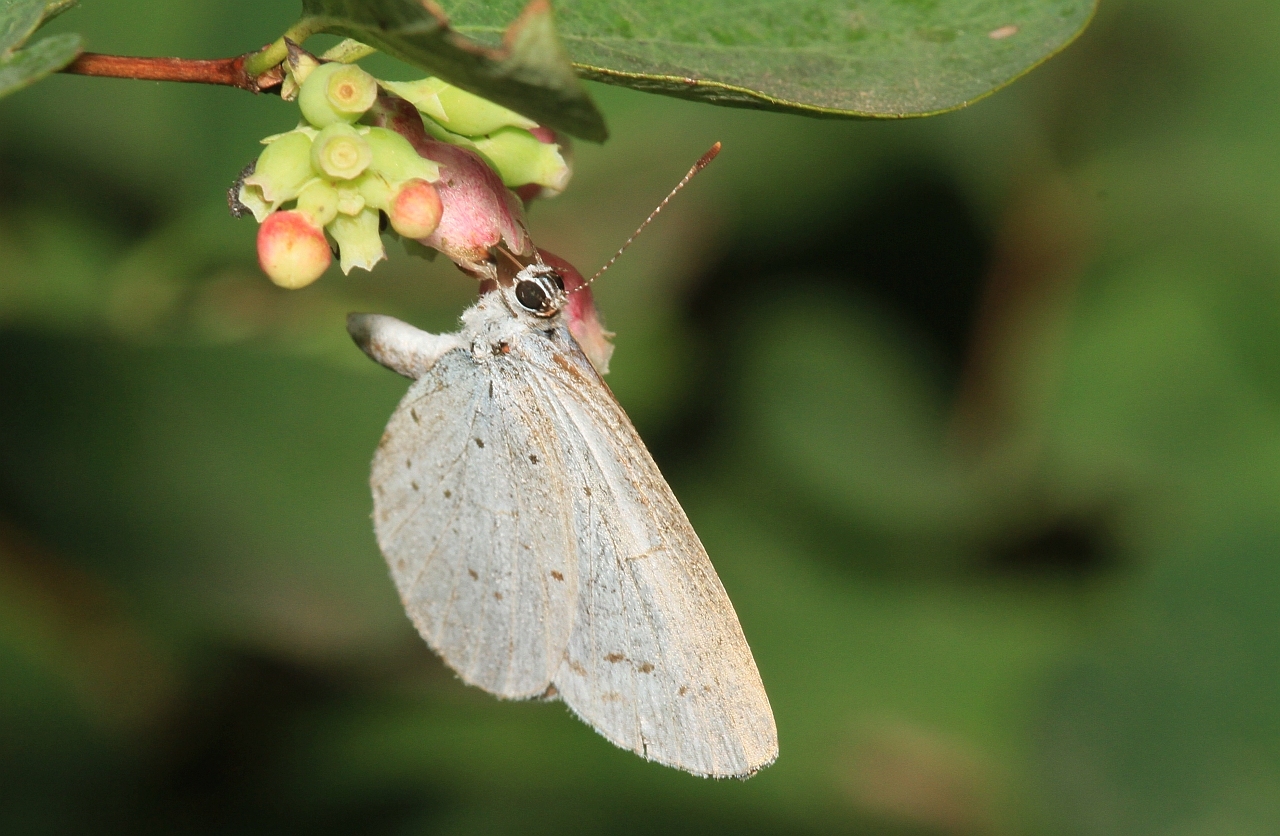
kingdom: Animalia
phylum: Arthropoda
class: Insecta
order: Lepidoptera
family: Lycaenidae
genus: Celastrina
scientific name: Celastrina argiolus
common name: Holly blue
